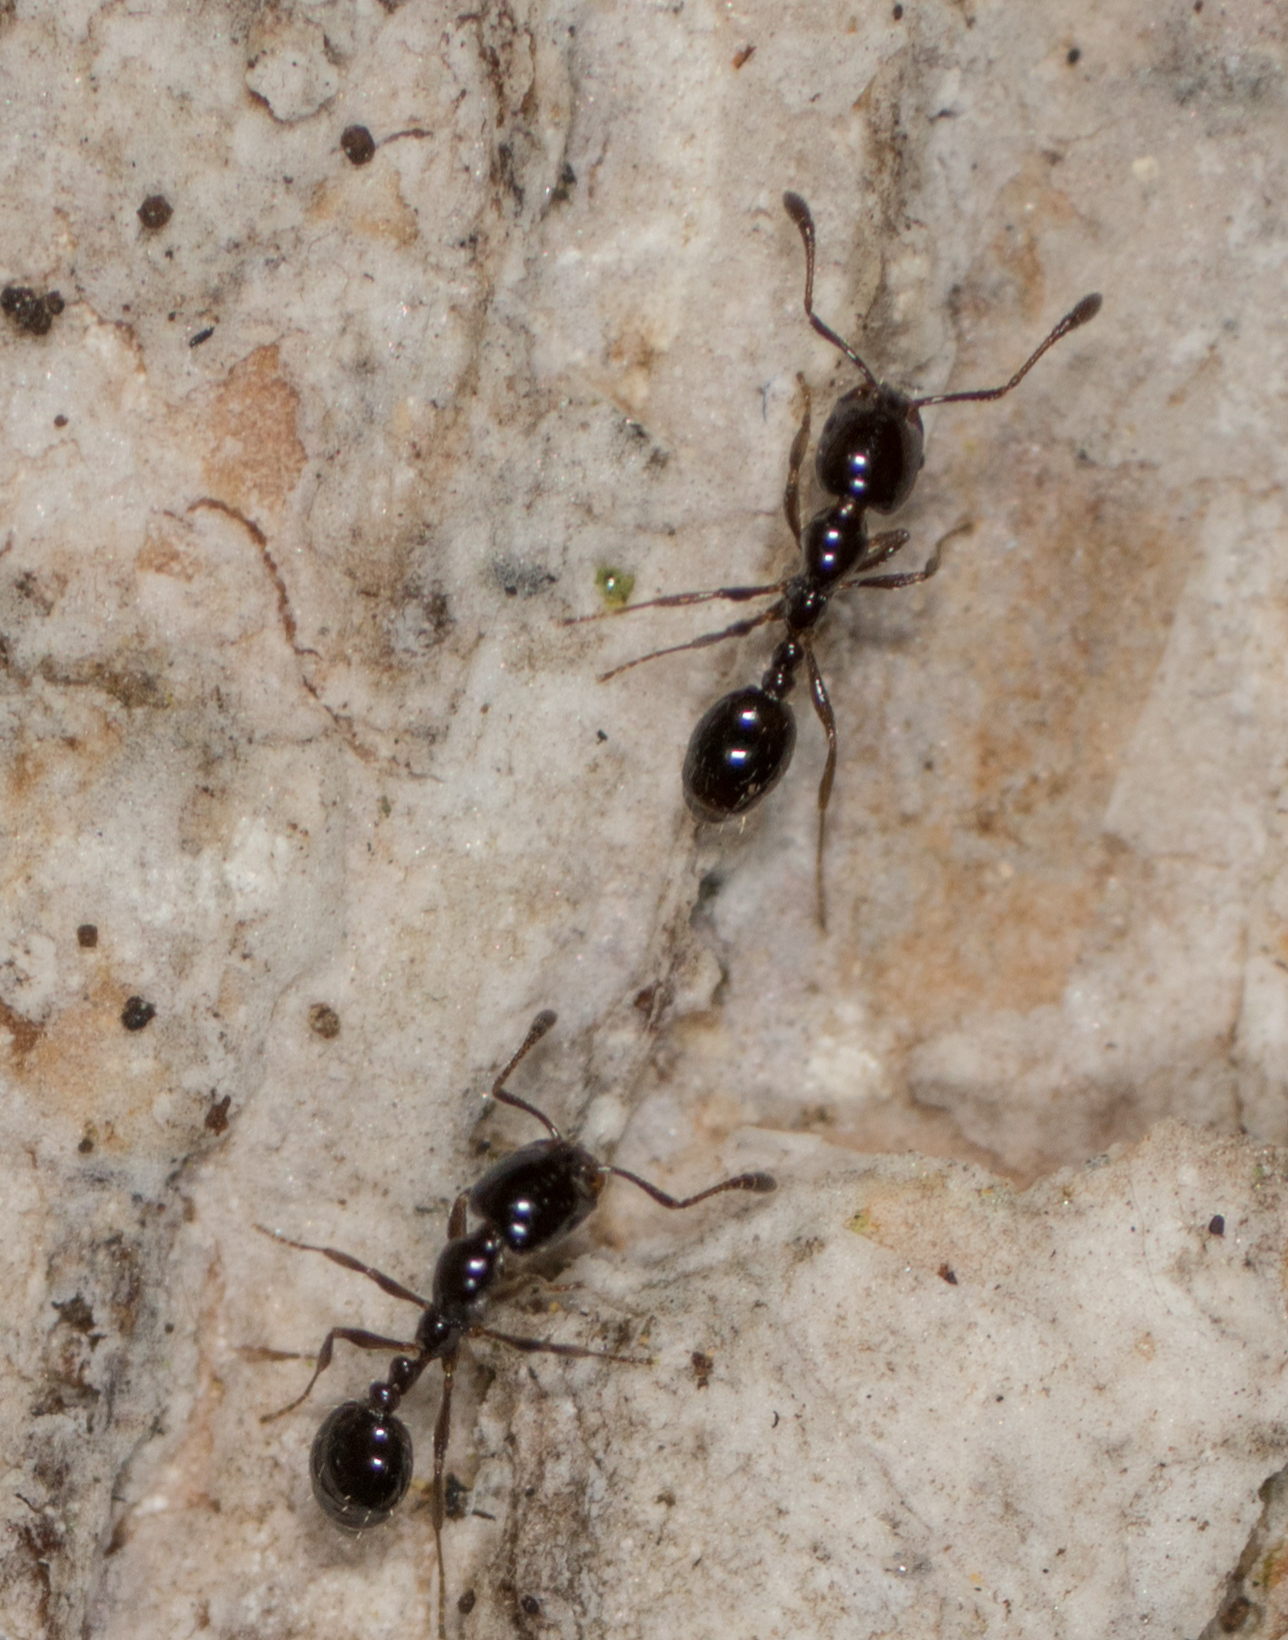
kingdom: Animalia
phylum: Arthropoda
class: Insecta
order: Hymenoptera
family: Formicidae
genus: Monomorium
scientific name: Monomorium ergatogyna
